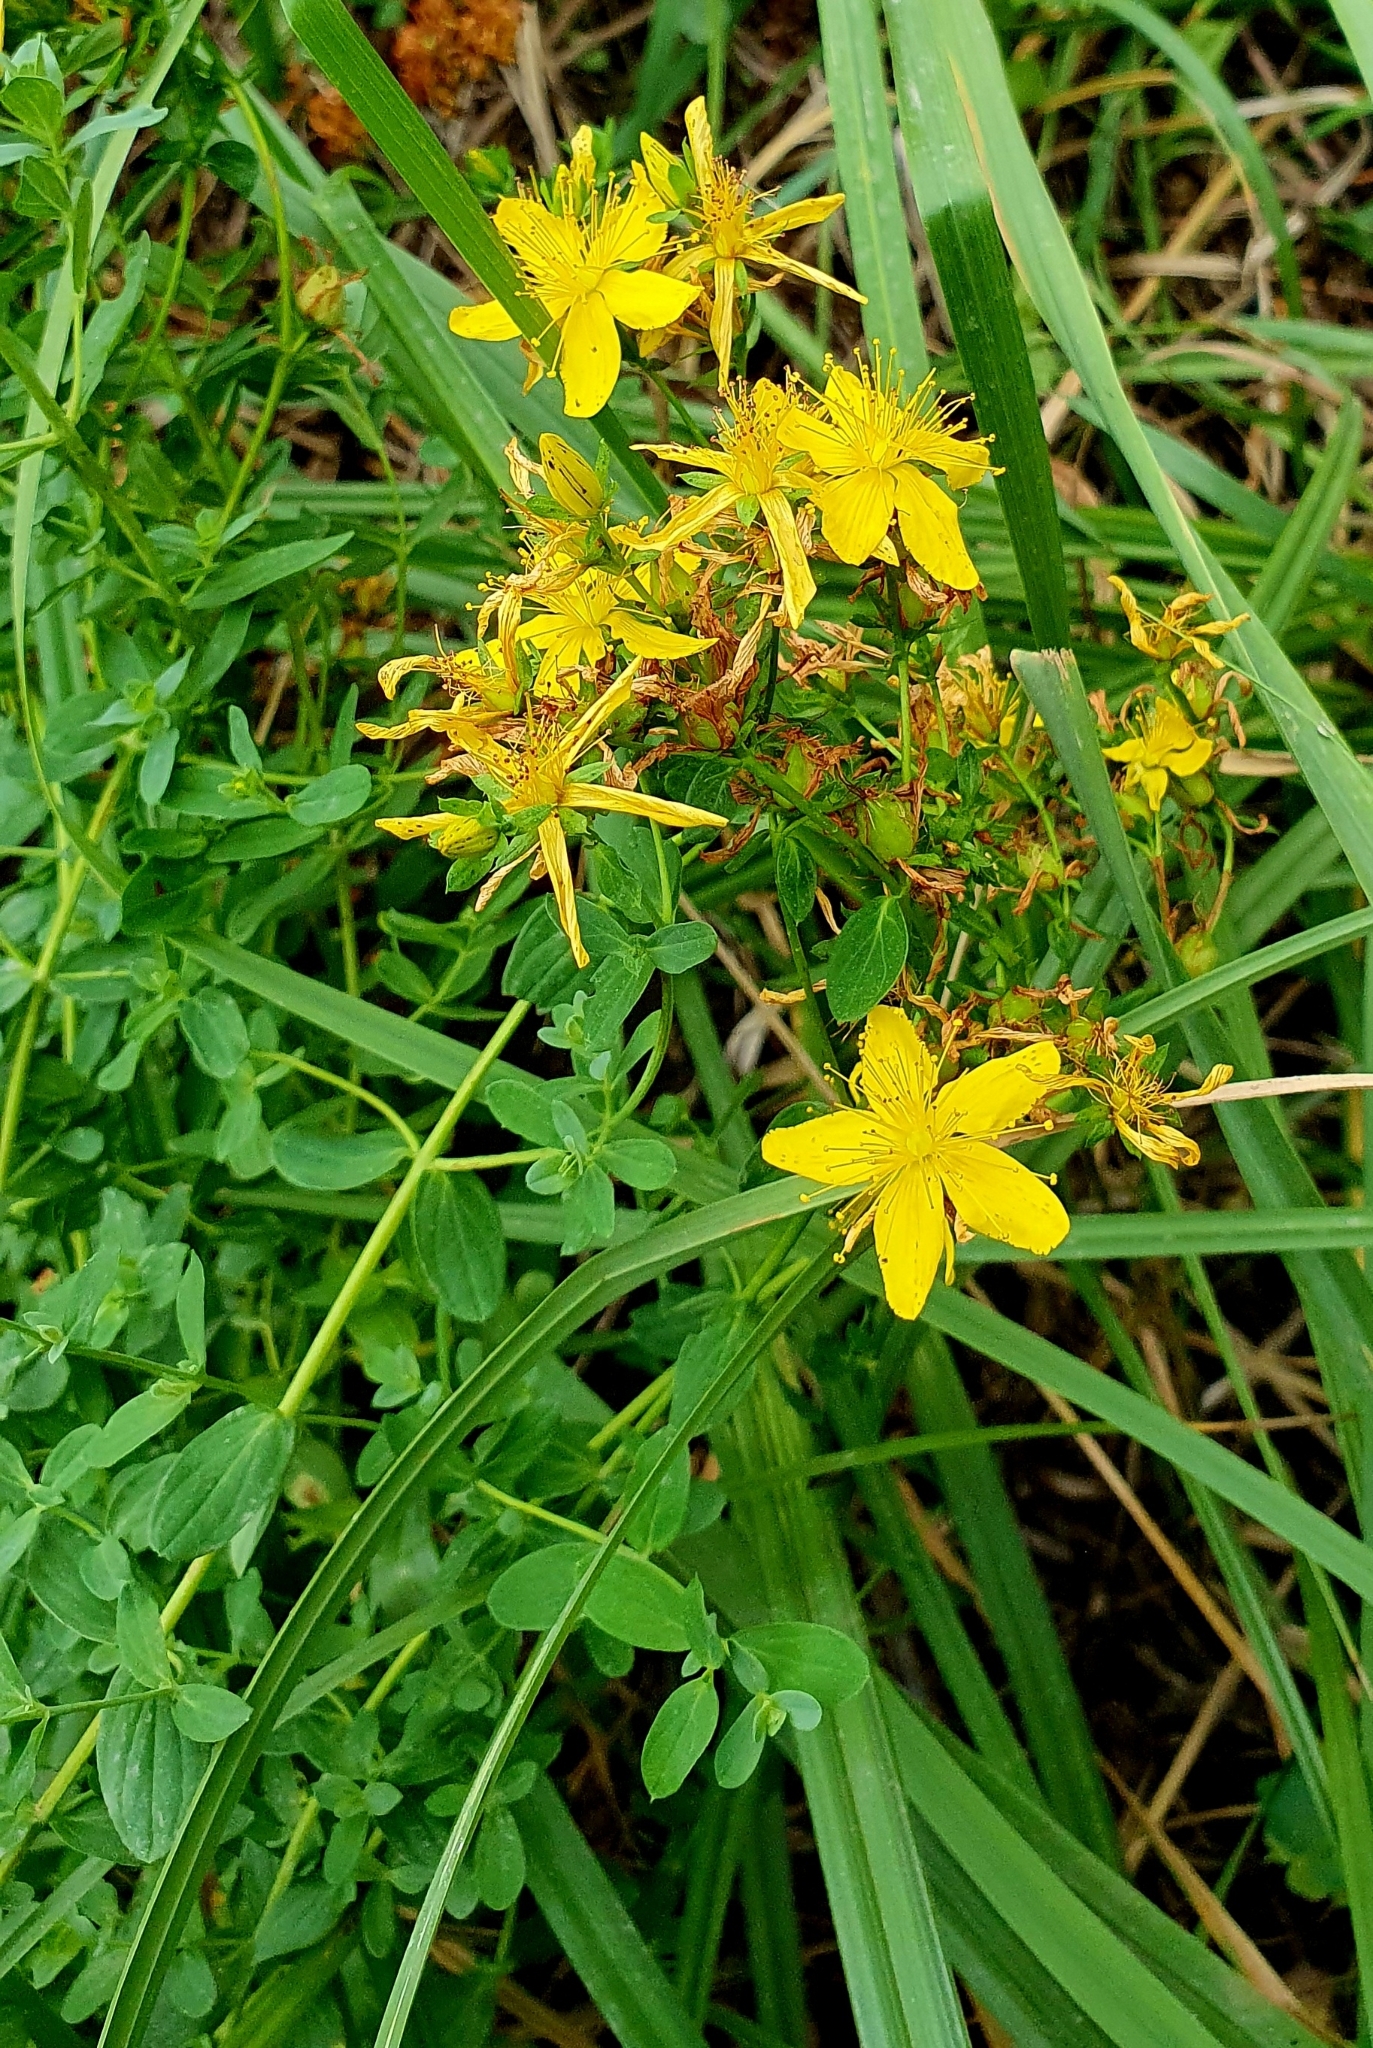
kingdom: Plantae
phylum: Tracheophyta
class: Magnoliopsida
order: Malpighiales
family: Hypericaceae
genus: Hypericum
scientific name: Hypericum perforatum
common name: Common st. johnswort
